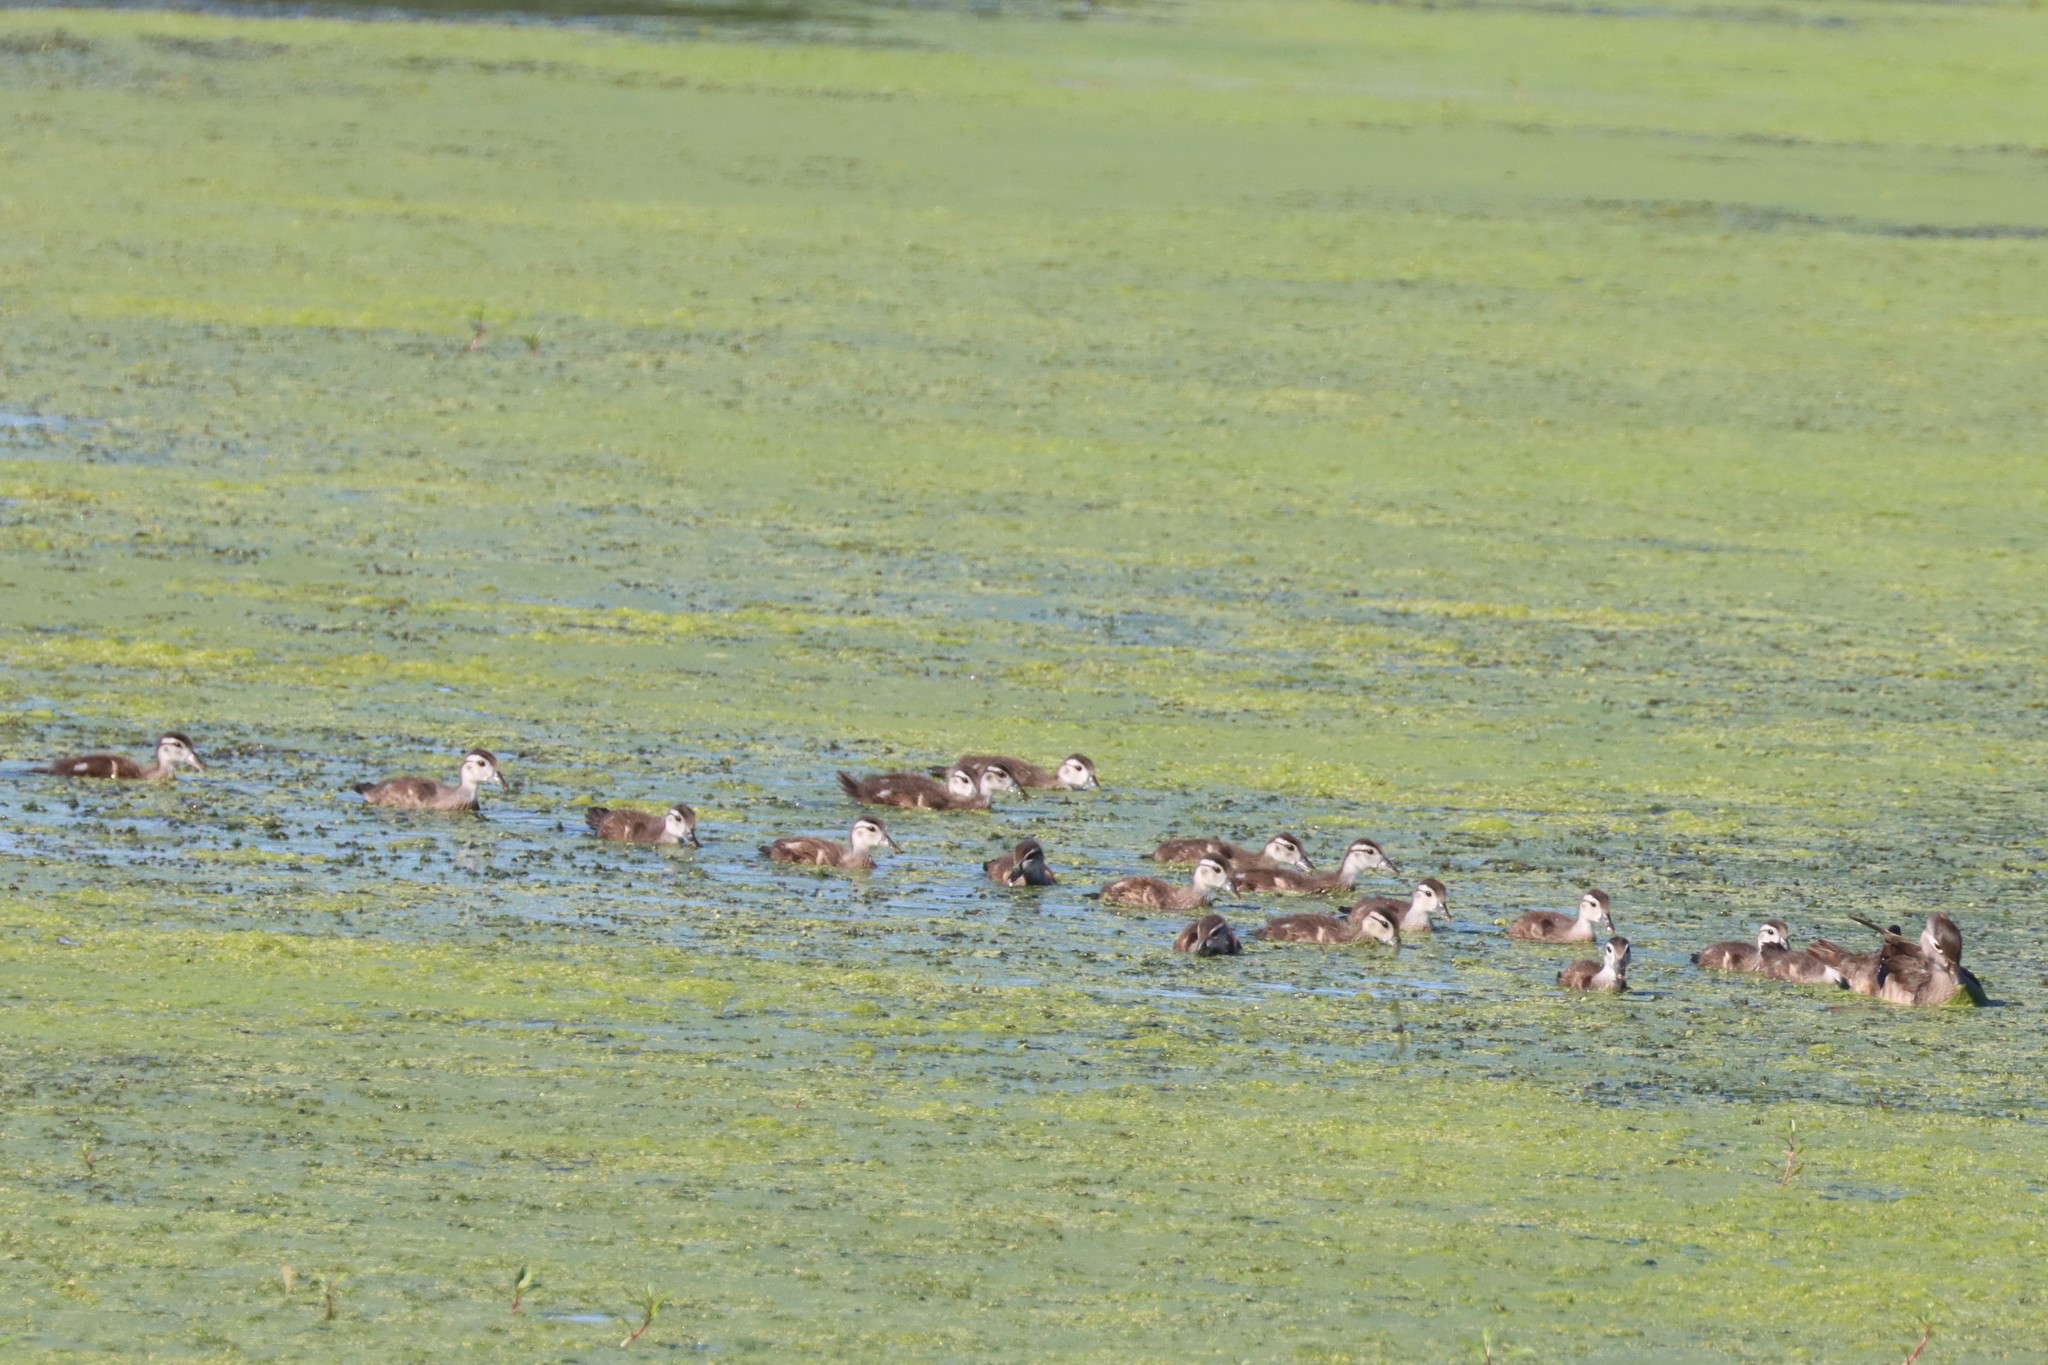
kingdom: Animalia
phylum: Chordata
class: Aves
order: Anseriformes
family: Anatidae
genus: Aix
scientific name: Aix sponsa
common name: Wood duck
